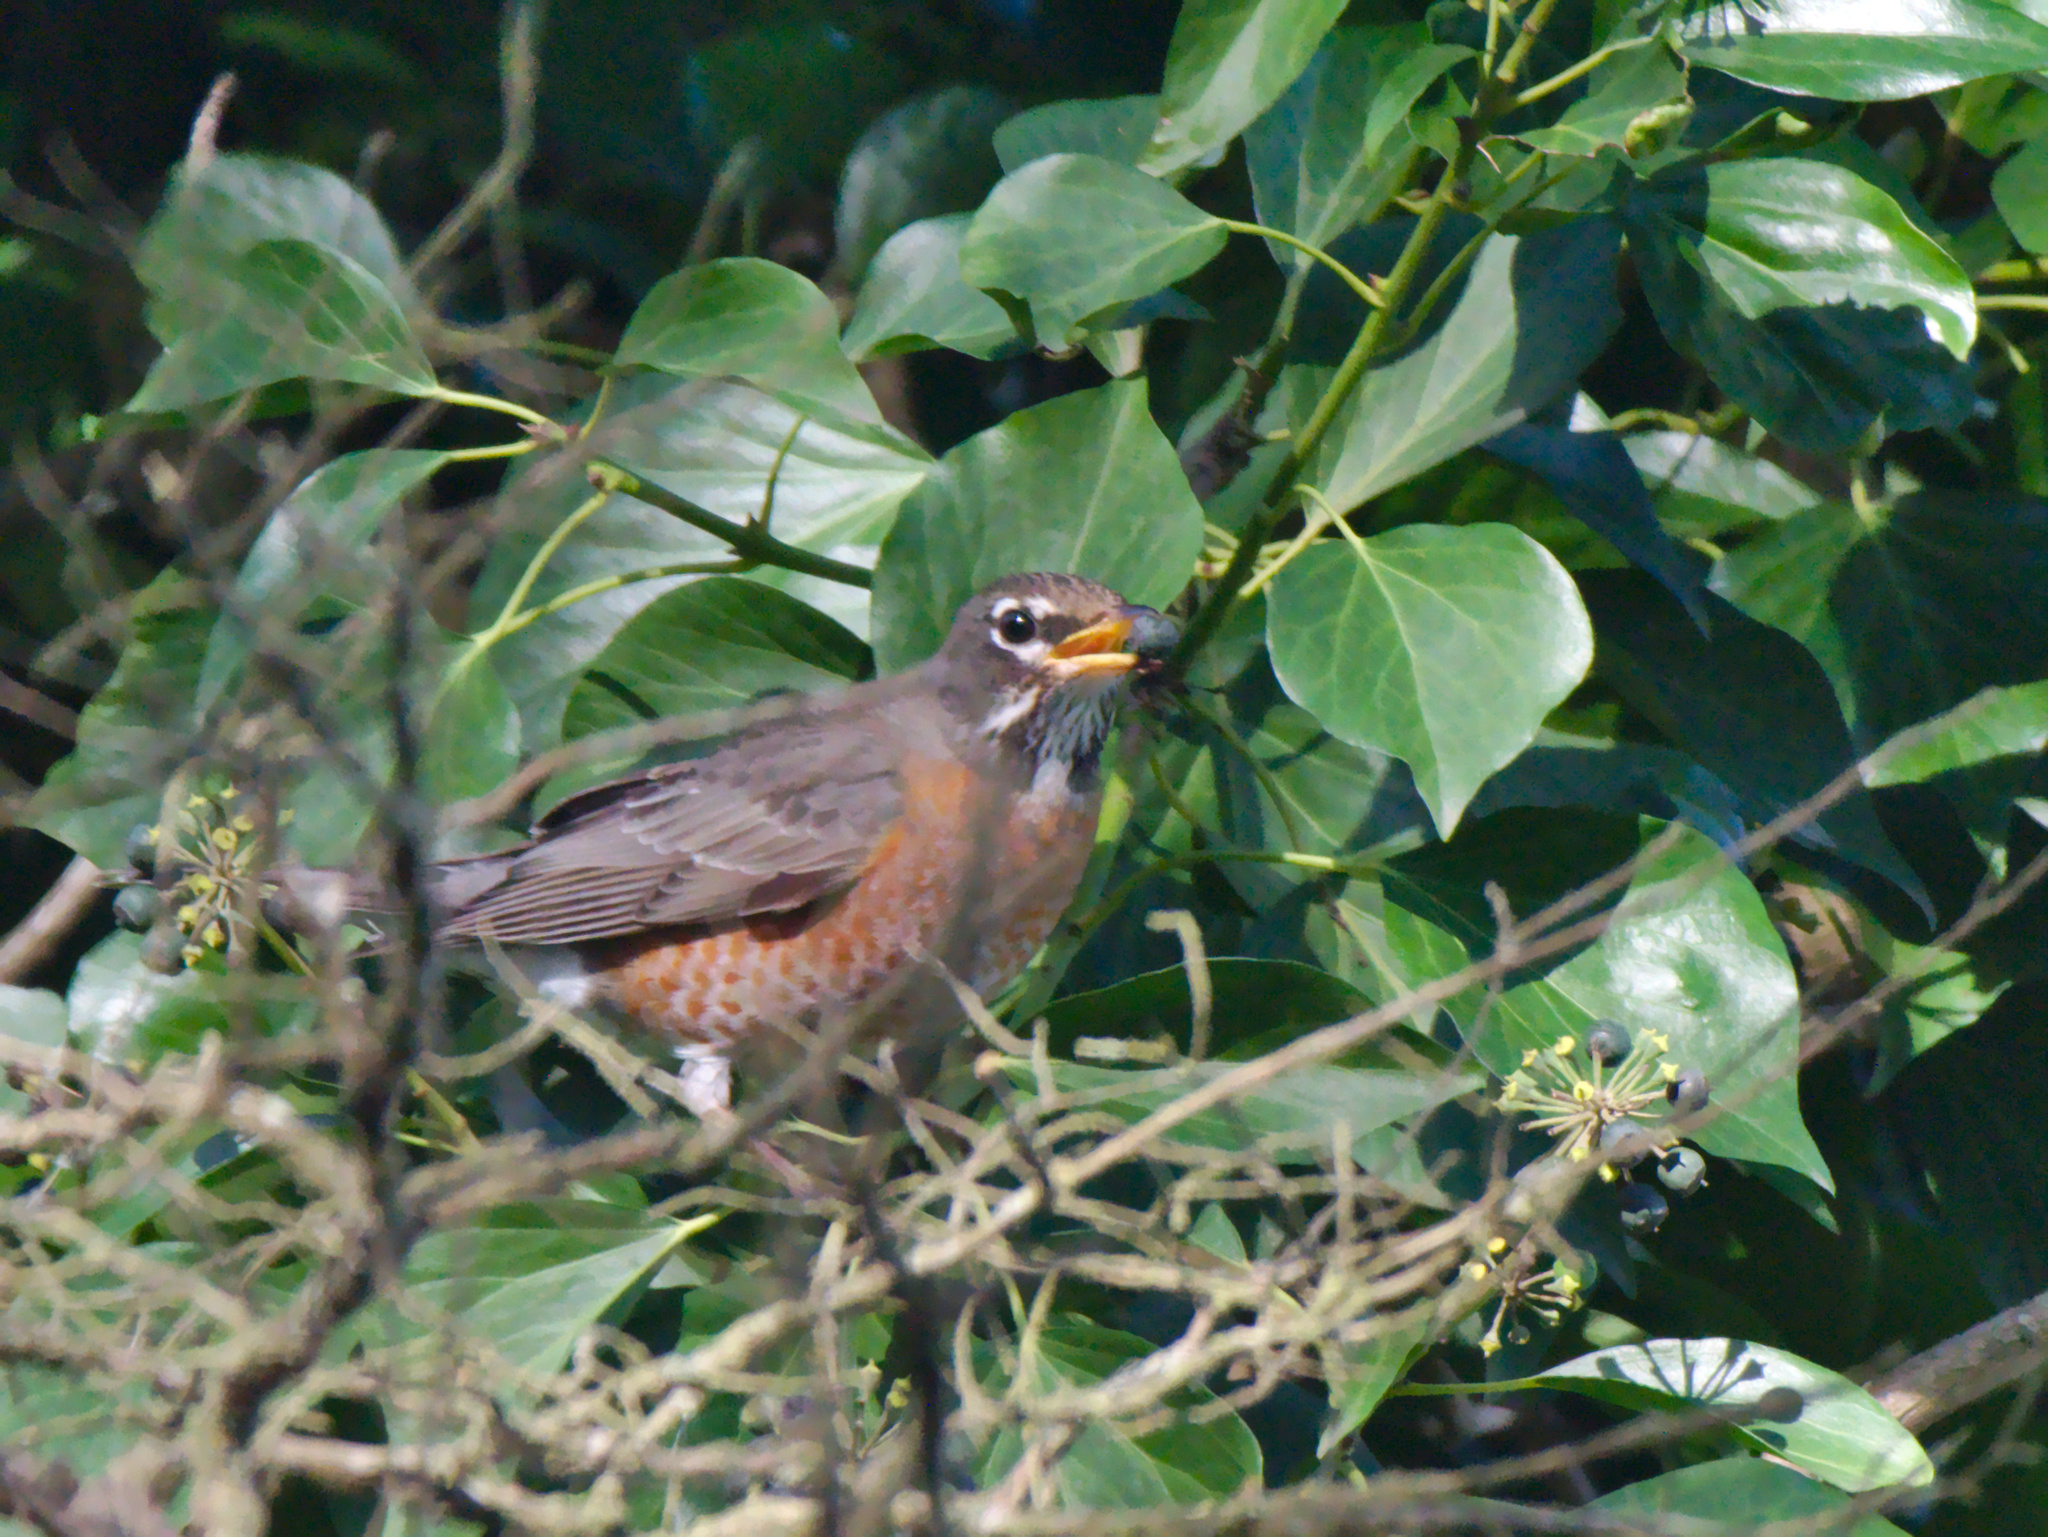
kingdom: Animalia
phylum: Chordata
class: Aves
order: Passeriformes
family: Turdidae
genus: Turdus
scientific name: Turdus migratorius
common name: American robin
